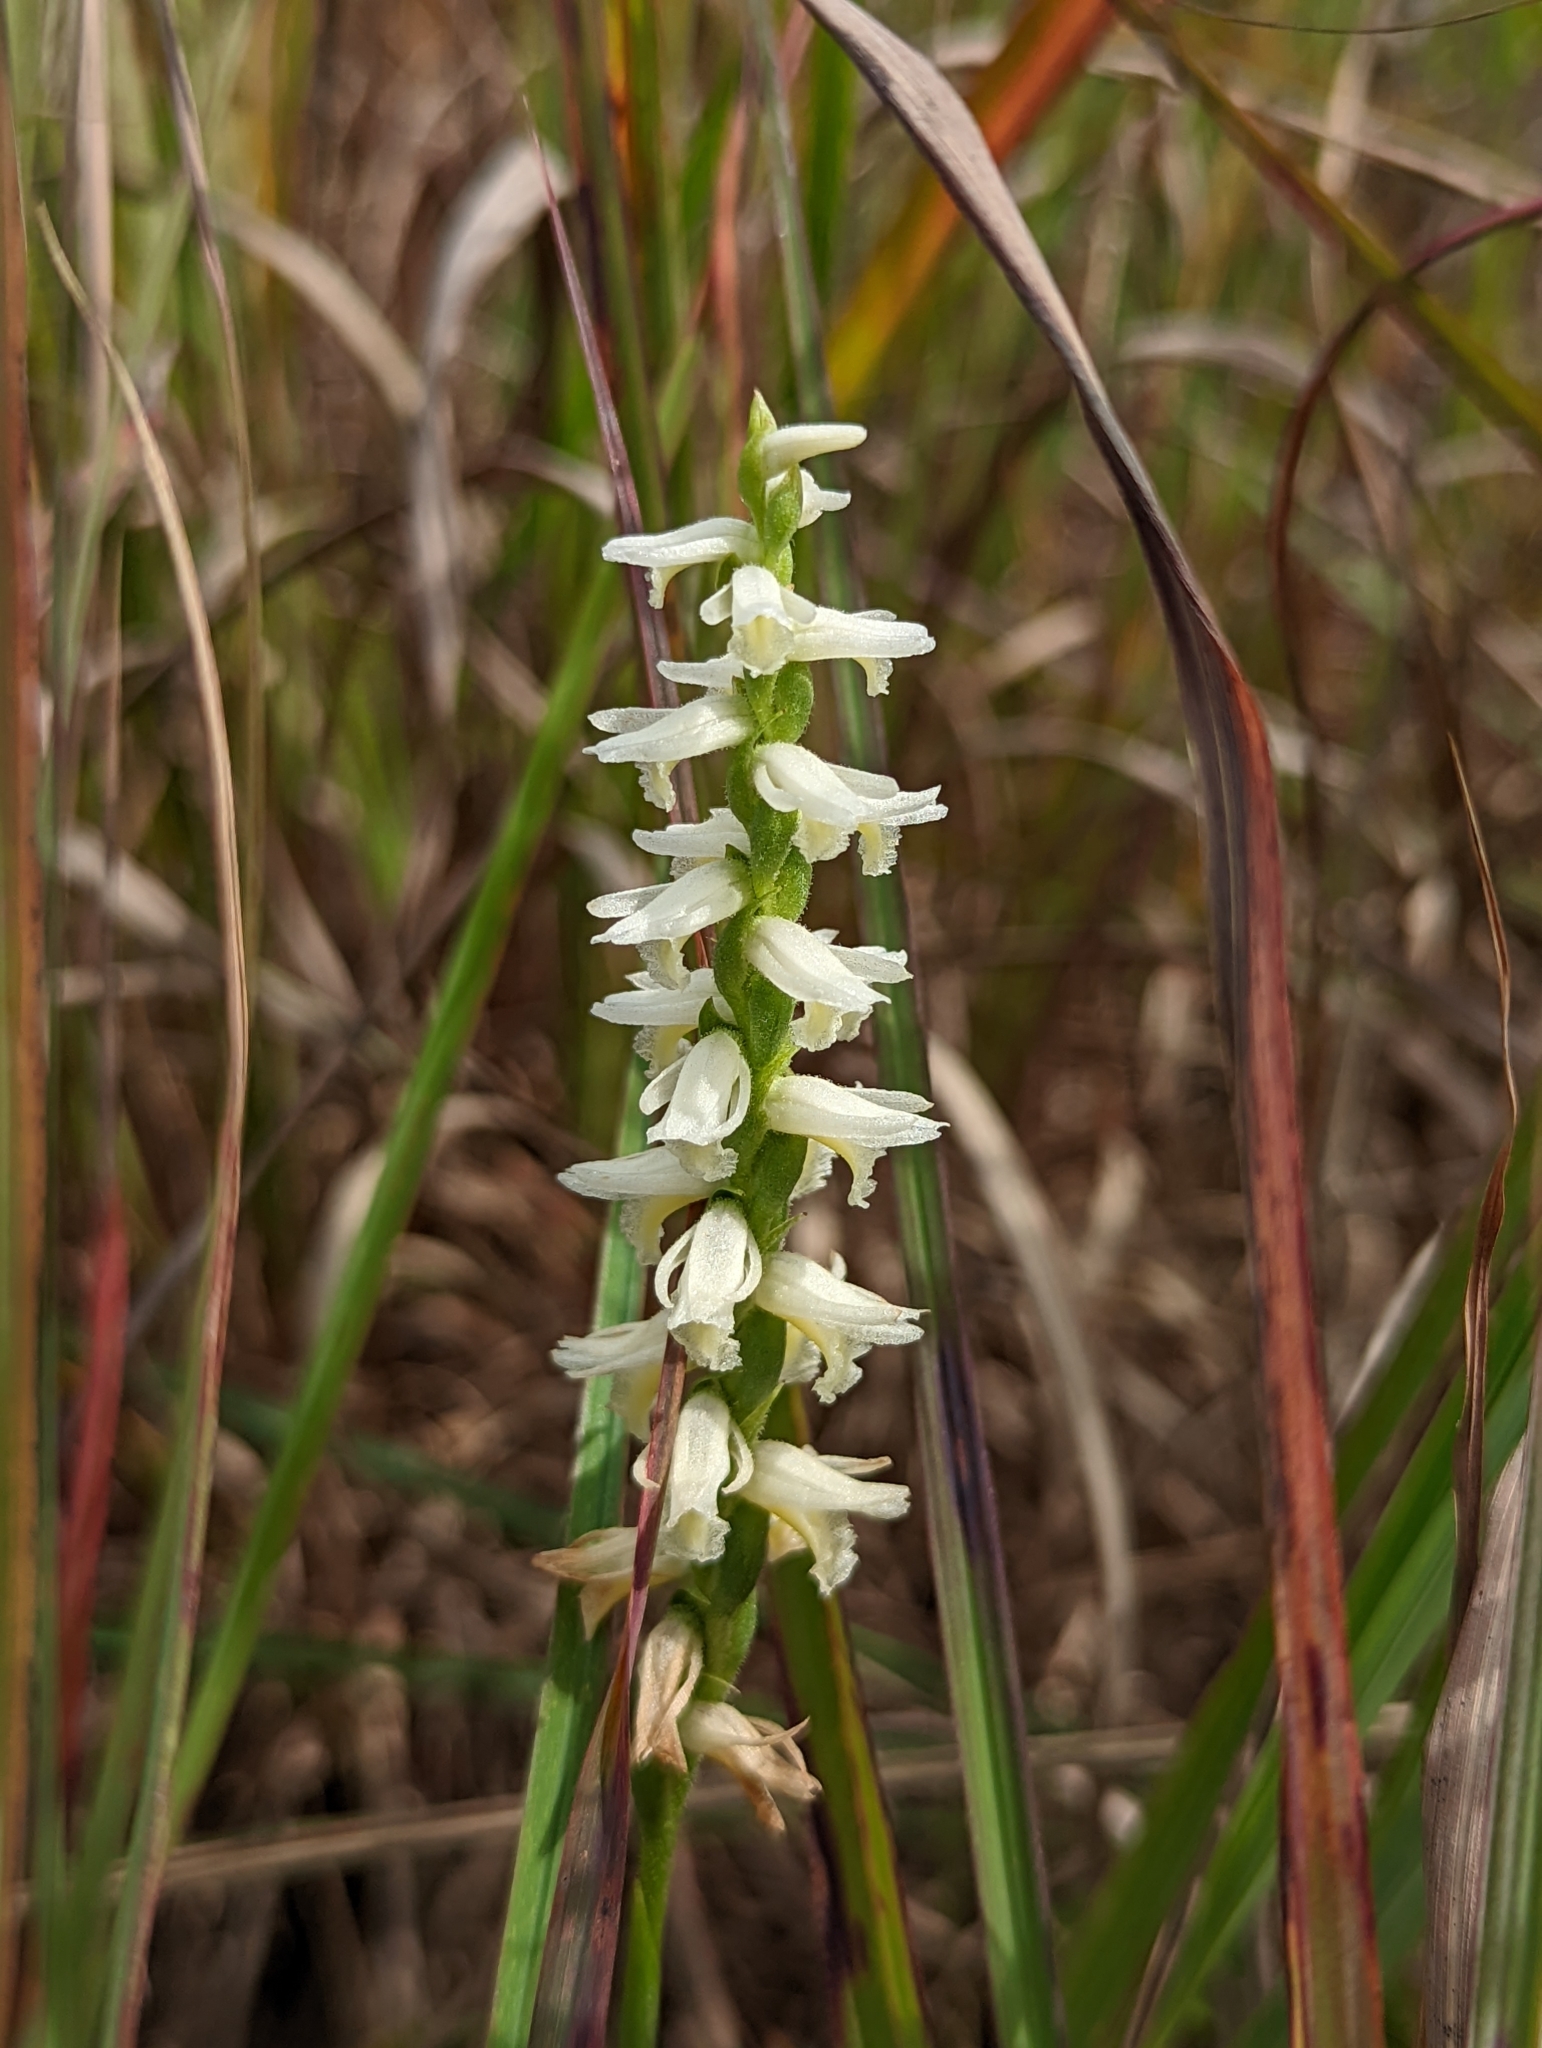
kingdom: Plantae
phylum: Tracheophyta
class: Liliopsida
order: Asparagales
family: Orchidaceae
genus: Spiranthes
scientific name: Spiranthes magnicamporum
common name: Great plains ladies'-tresses
